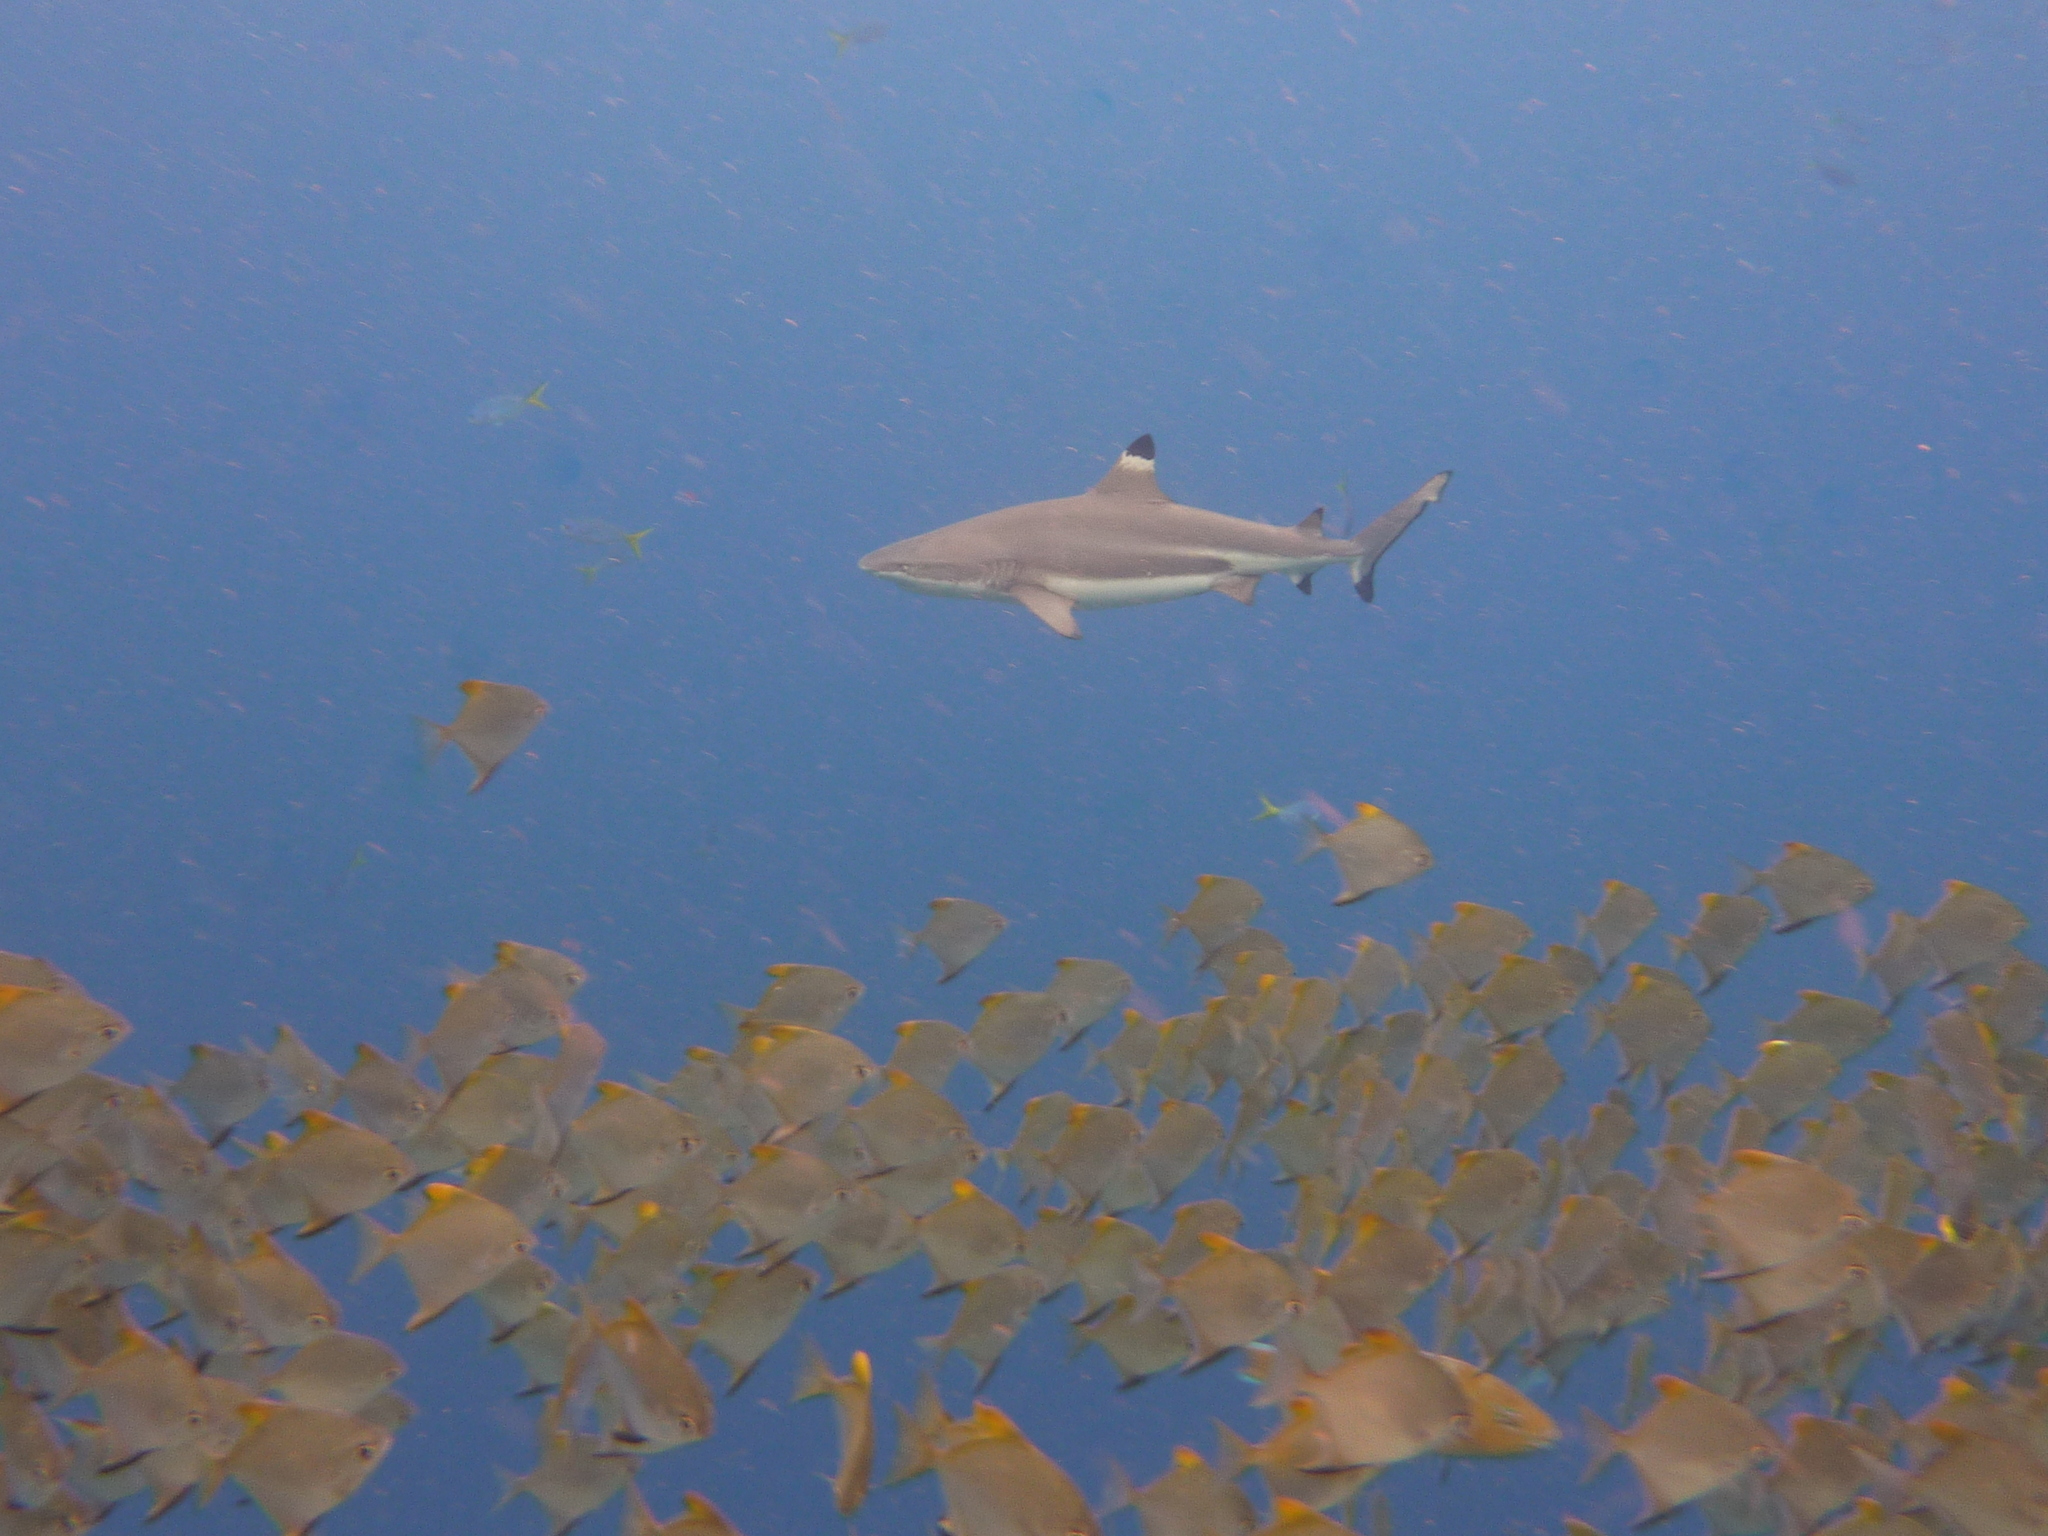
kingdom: Animalia
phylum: Chordata
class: Elasmobranchii
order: Carcharhiniformes
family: Carcharhinidae
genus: Carcharhinus
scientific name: Carcharhinus melanopterus
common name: Blacktip reef shark
